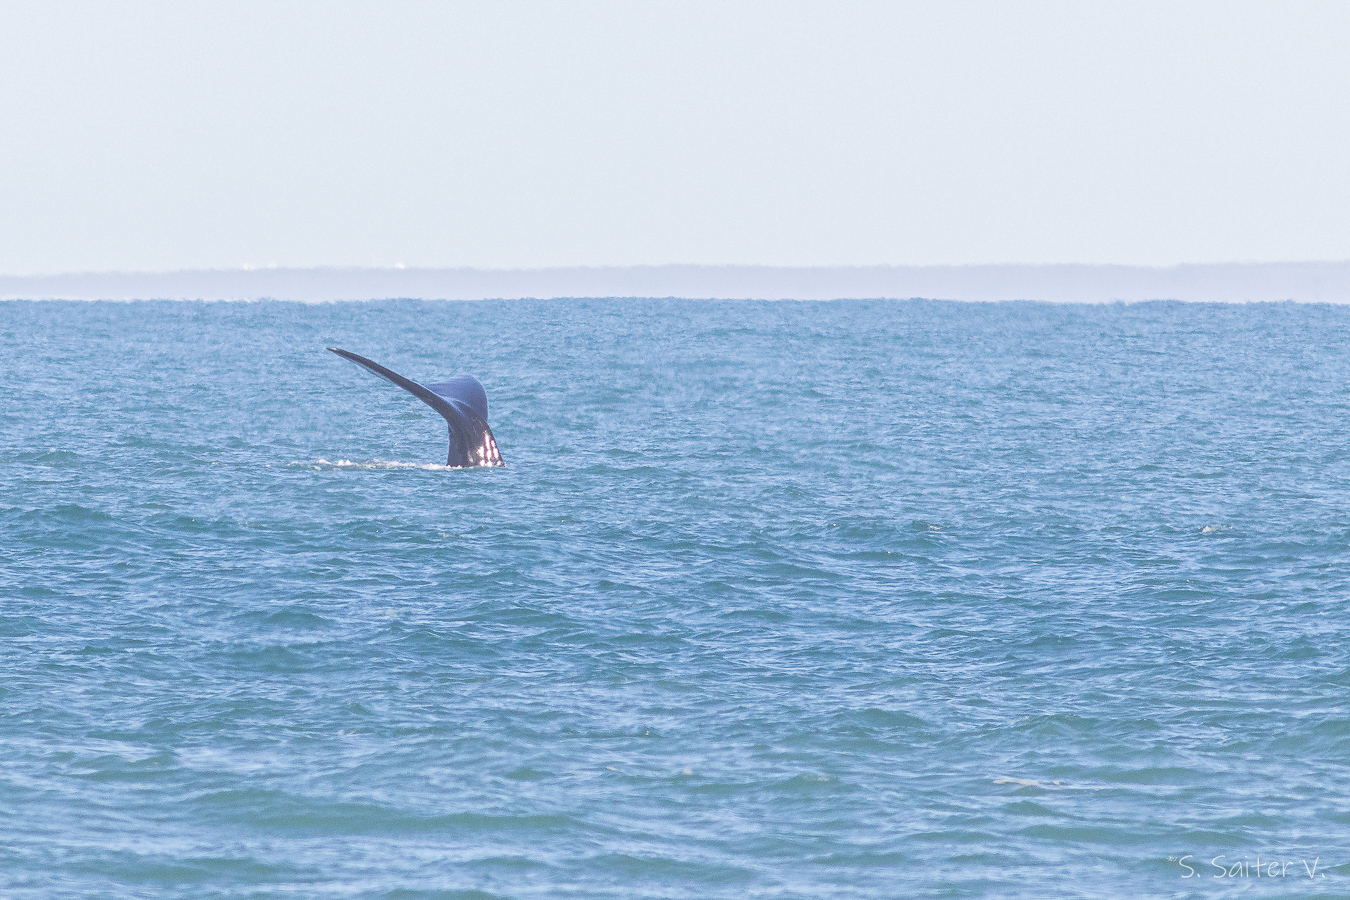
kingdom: Animalia
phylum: Chordata
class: Mammalia
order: Cetacea
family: Balaenidae
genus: Eubalaena
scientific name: Eubalaena australis
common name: Southern right whale
